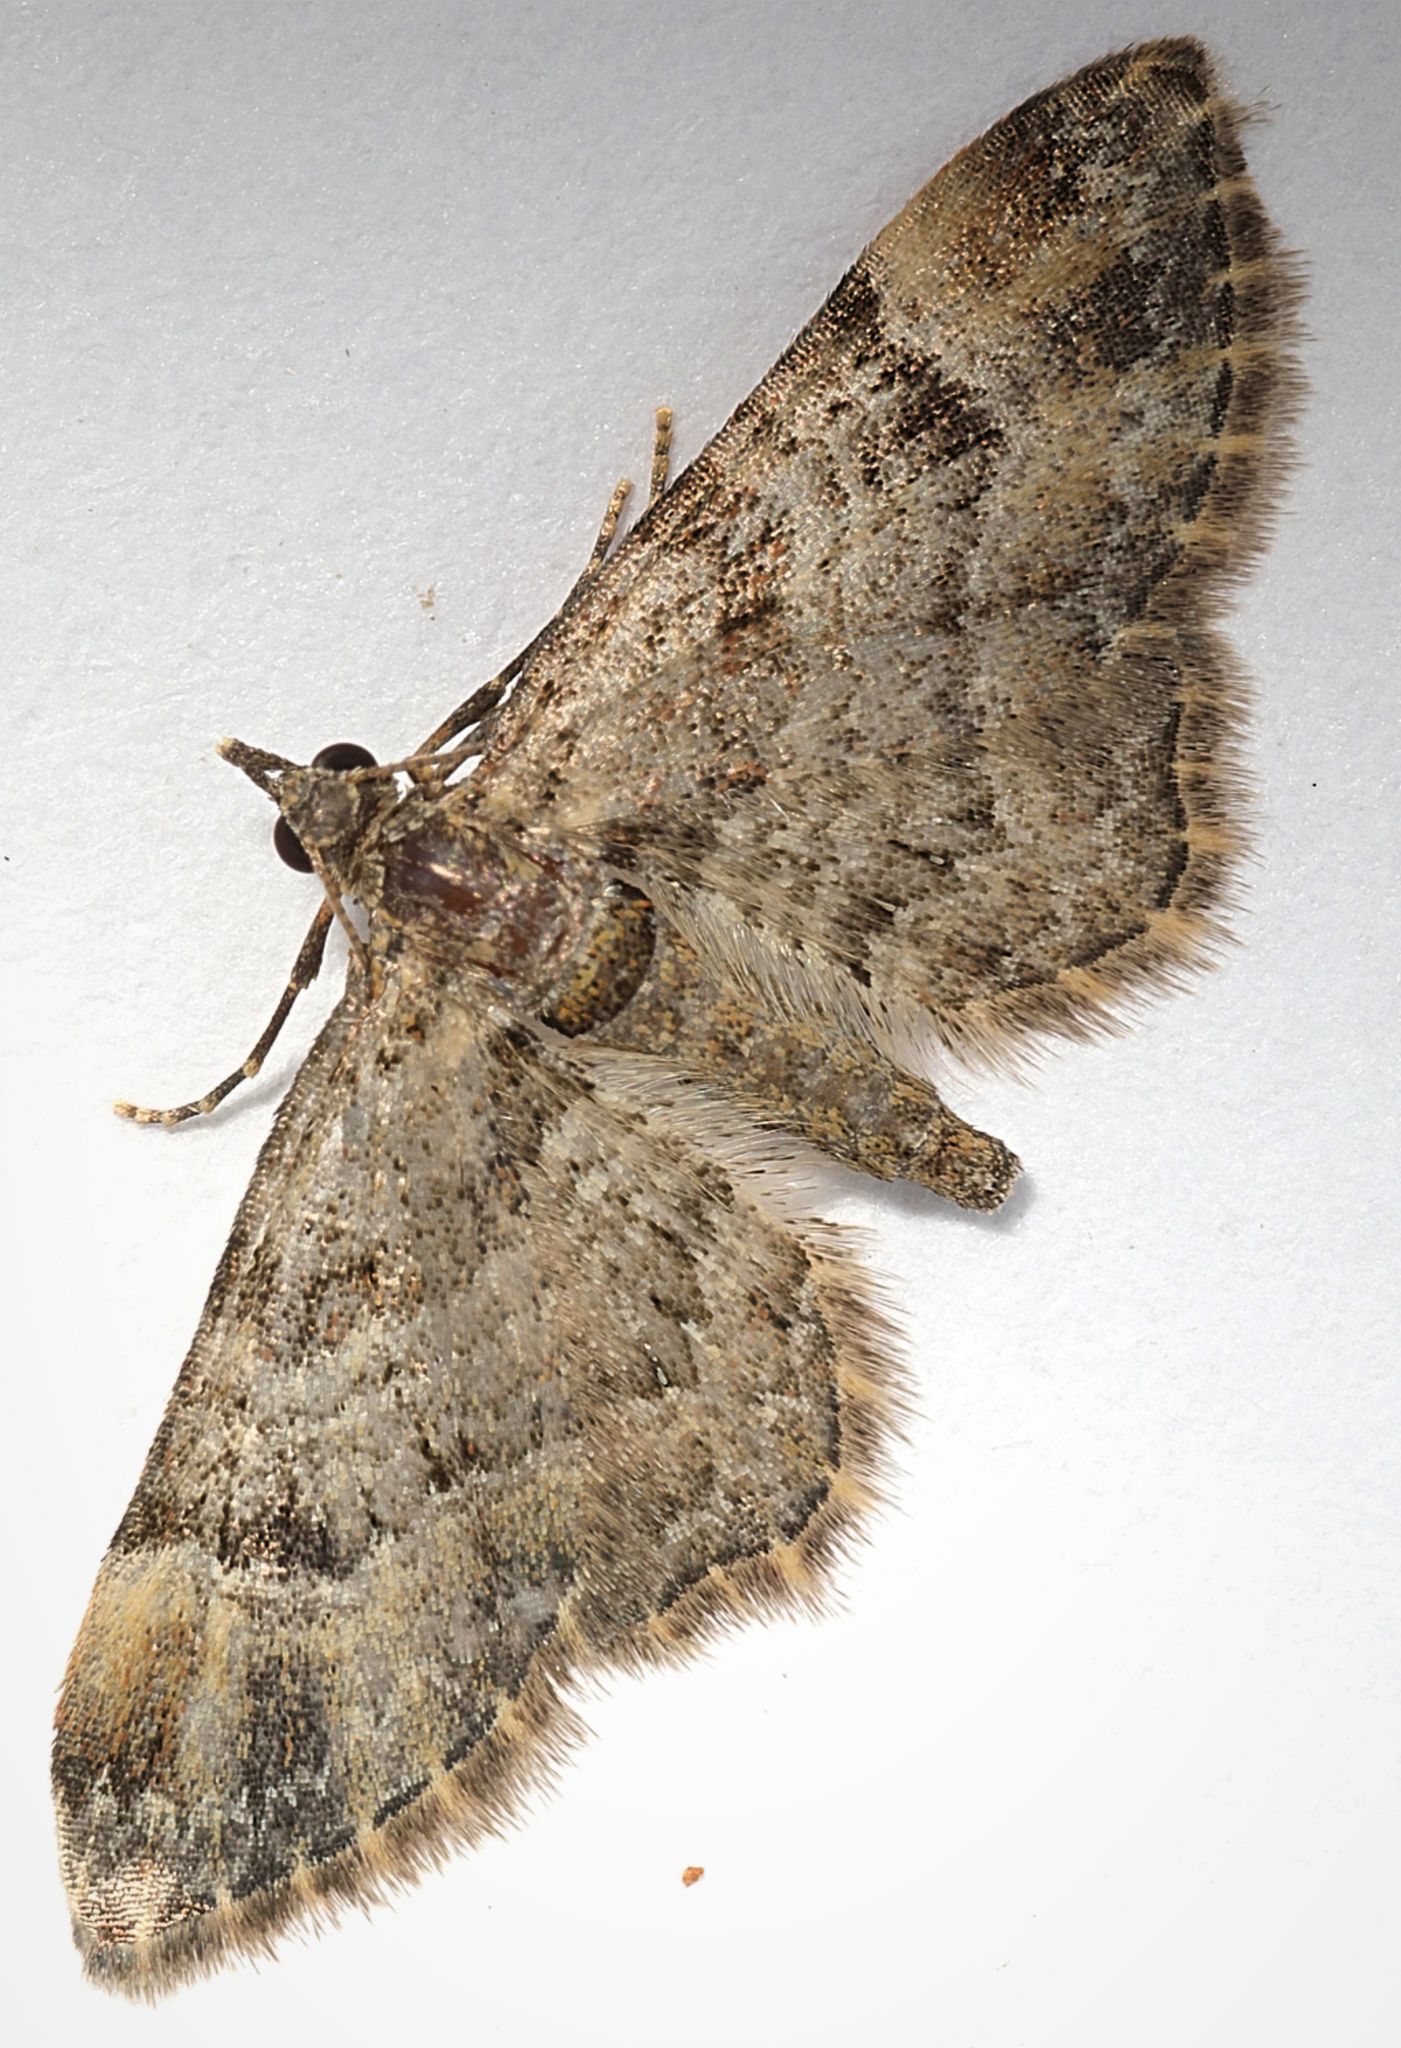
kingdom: Animalia
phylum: Arthropoda
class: Insecta
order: Lepidoptera
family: Geometridae
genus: Gymnoscelis
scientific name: Gymnoscelis rufifasciata
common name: Double-striped pug
